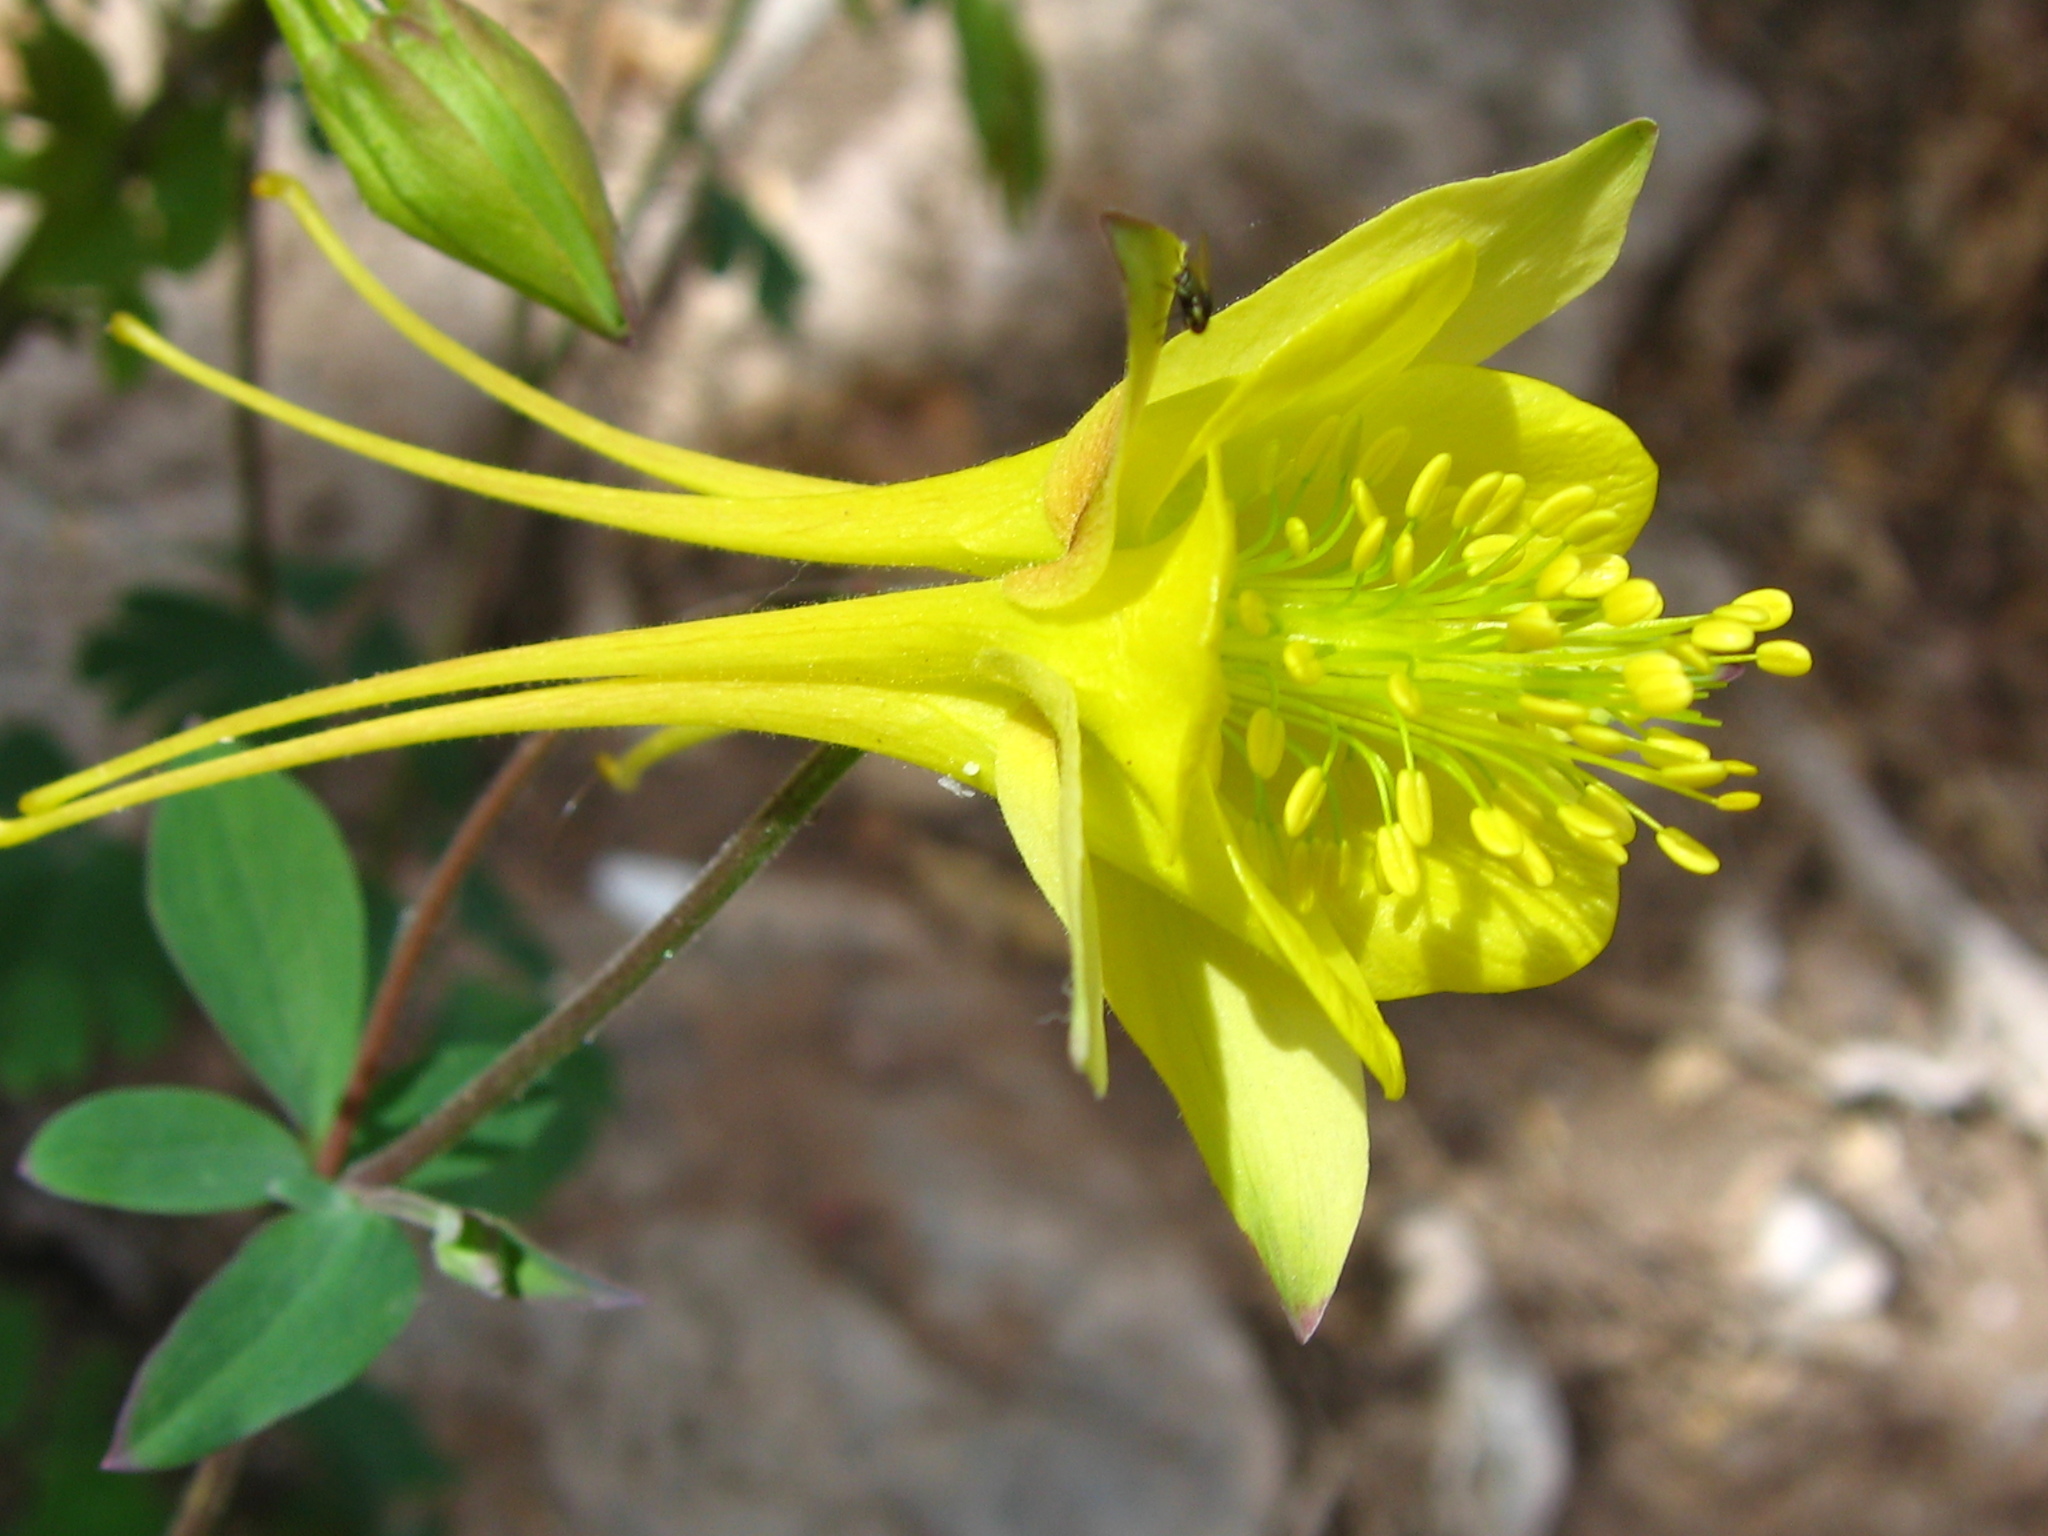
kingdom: Plantae
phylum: Tracheophyta
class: Magnoliopsida
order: Ranunculales
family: Ranunculaceae
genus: Aquilegia
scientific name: Aquilegia chrysantha
